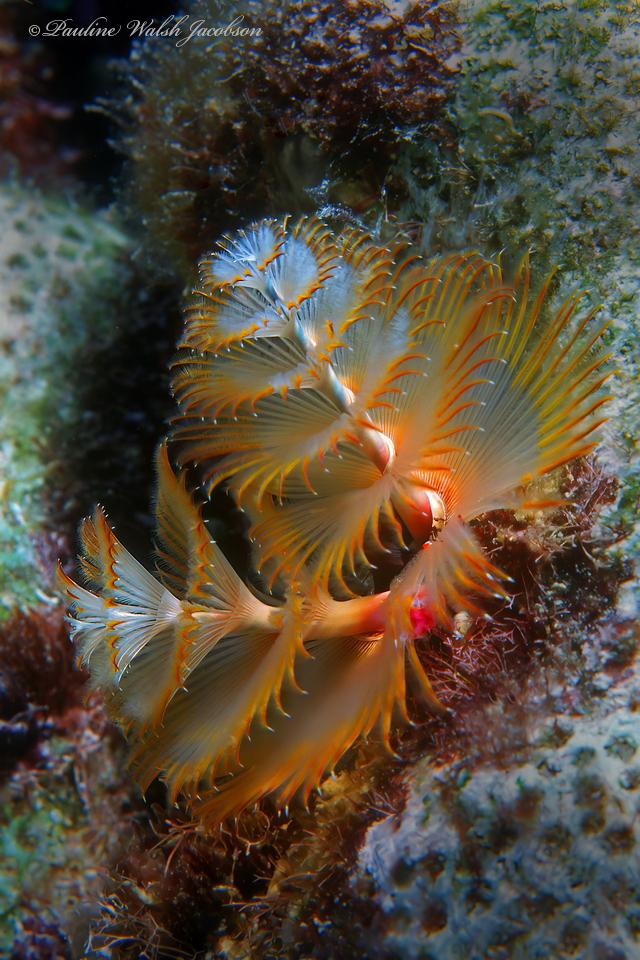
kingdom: Animalia
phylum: Annelida
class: Polychaeta
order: Sabellida
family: Serpulidae
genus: Spirobranchus
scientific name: Spirobranchus giganteus
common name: Christmas tree worm
